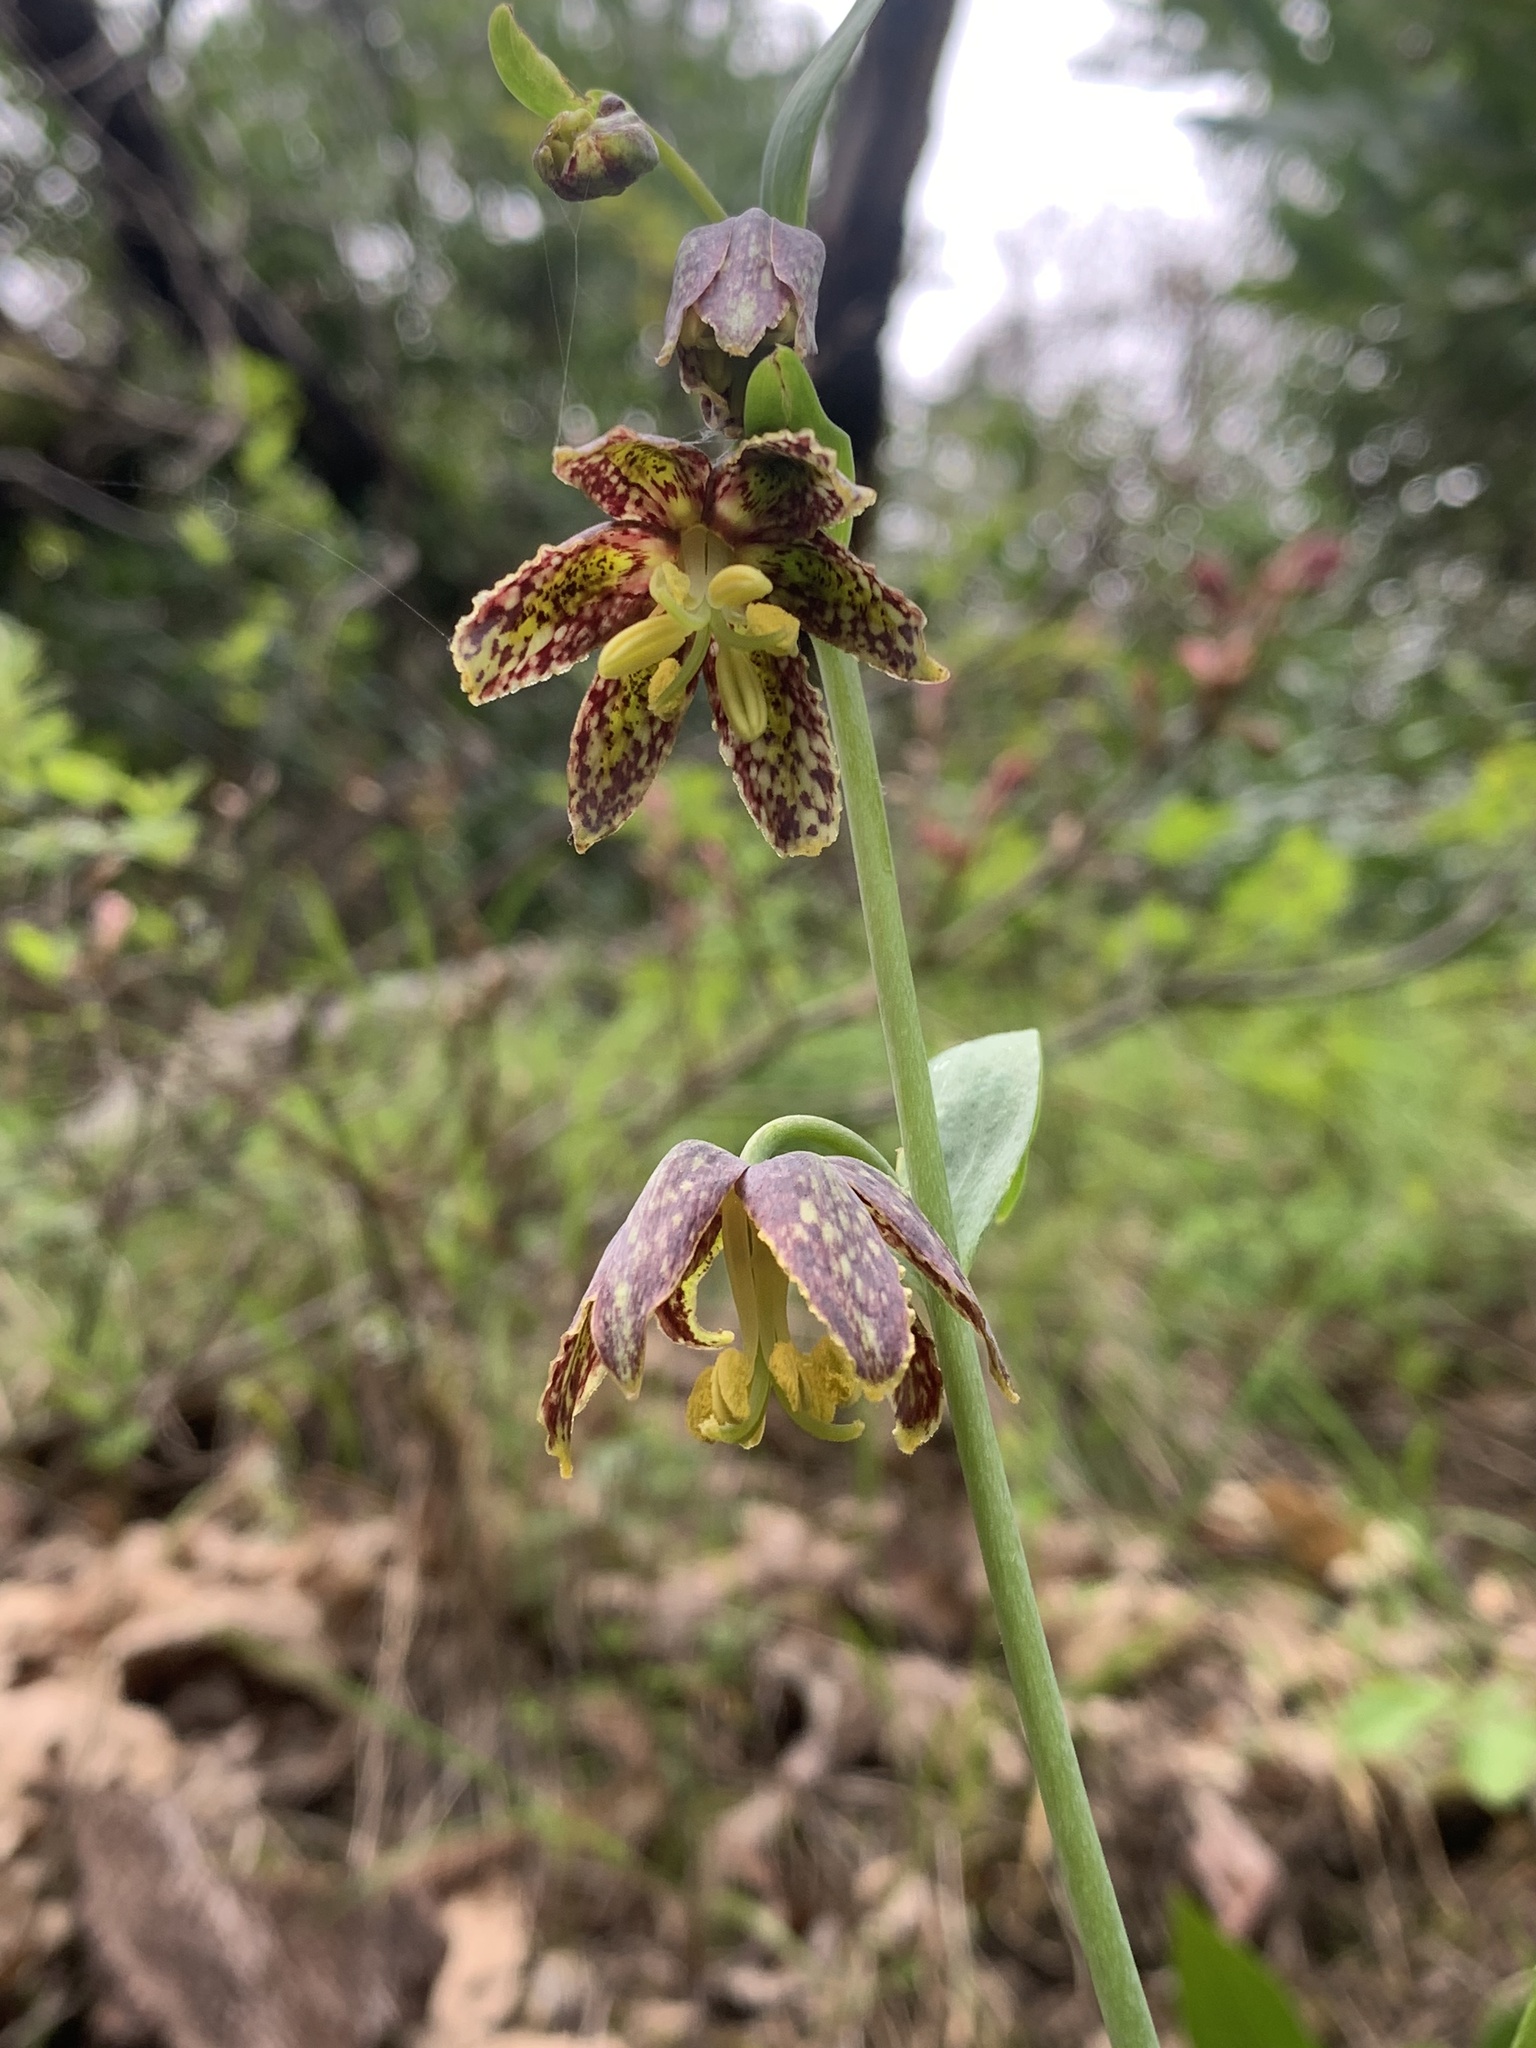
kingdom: Plantae
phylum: Tracheophyta
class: Liliopsida
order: Liliales
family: Liliaceae
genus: Fritillaria
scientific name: Fritillaria affinis
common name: Ojai fritillary
